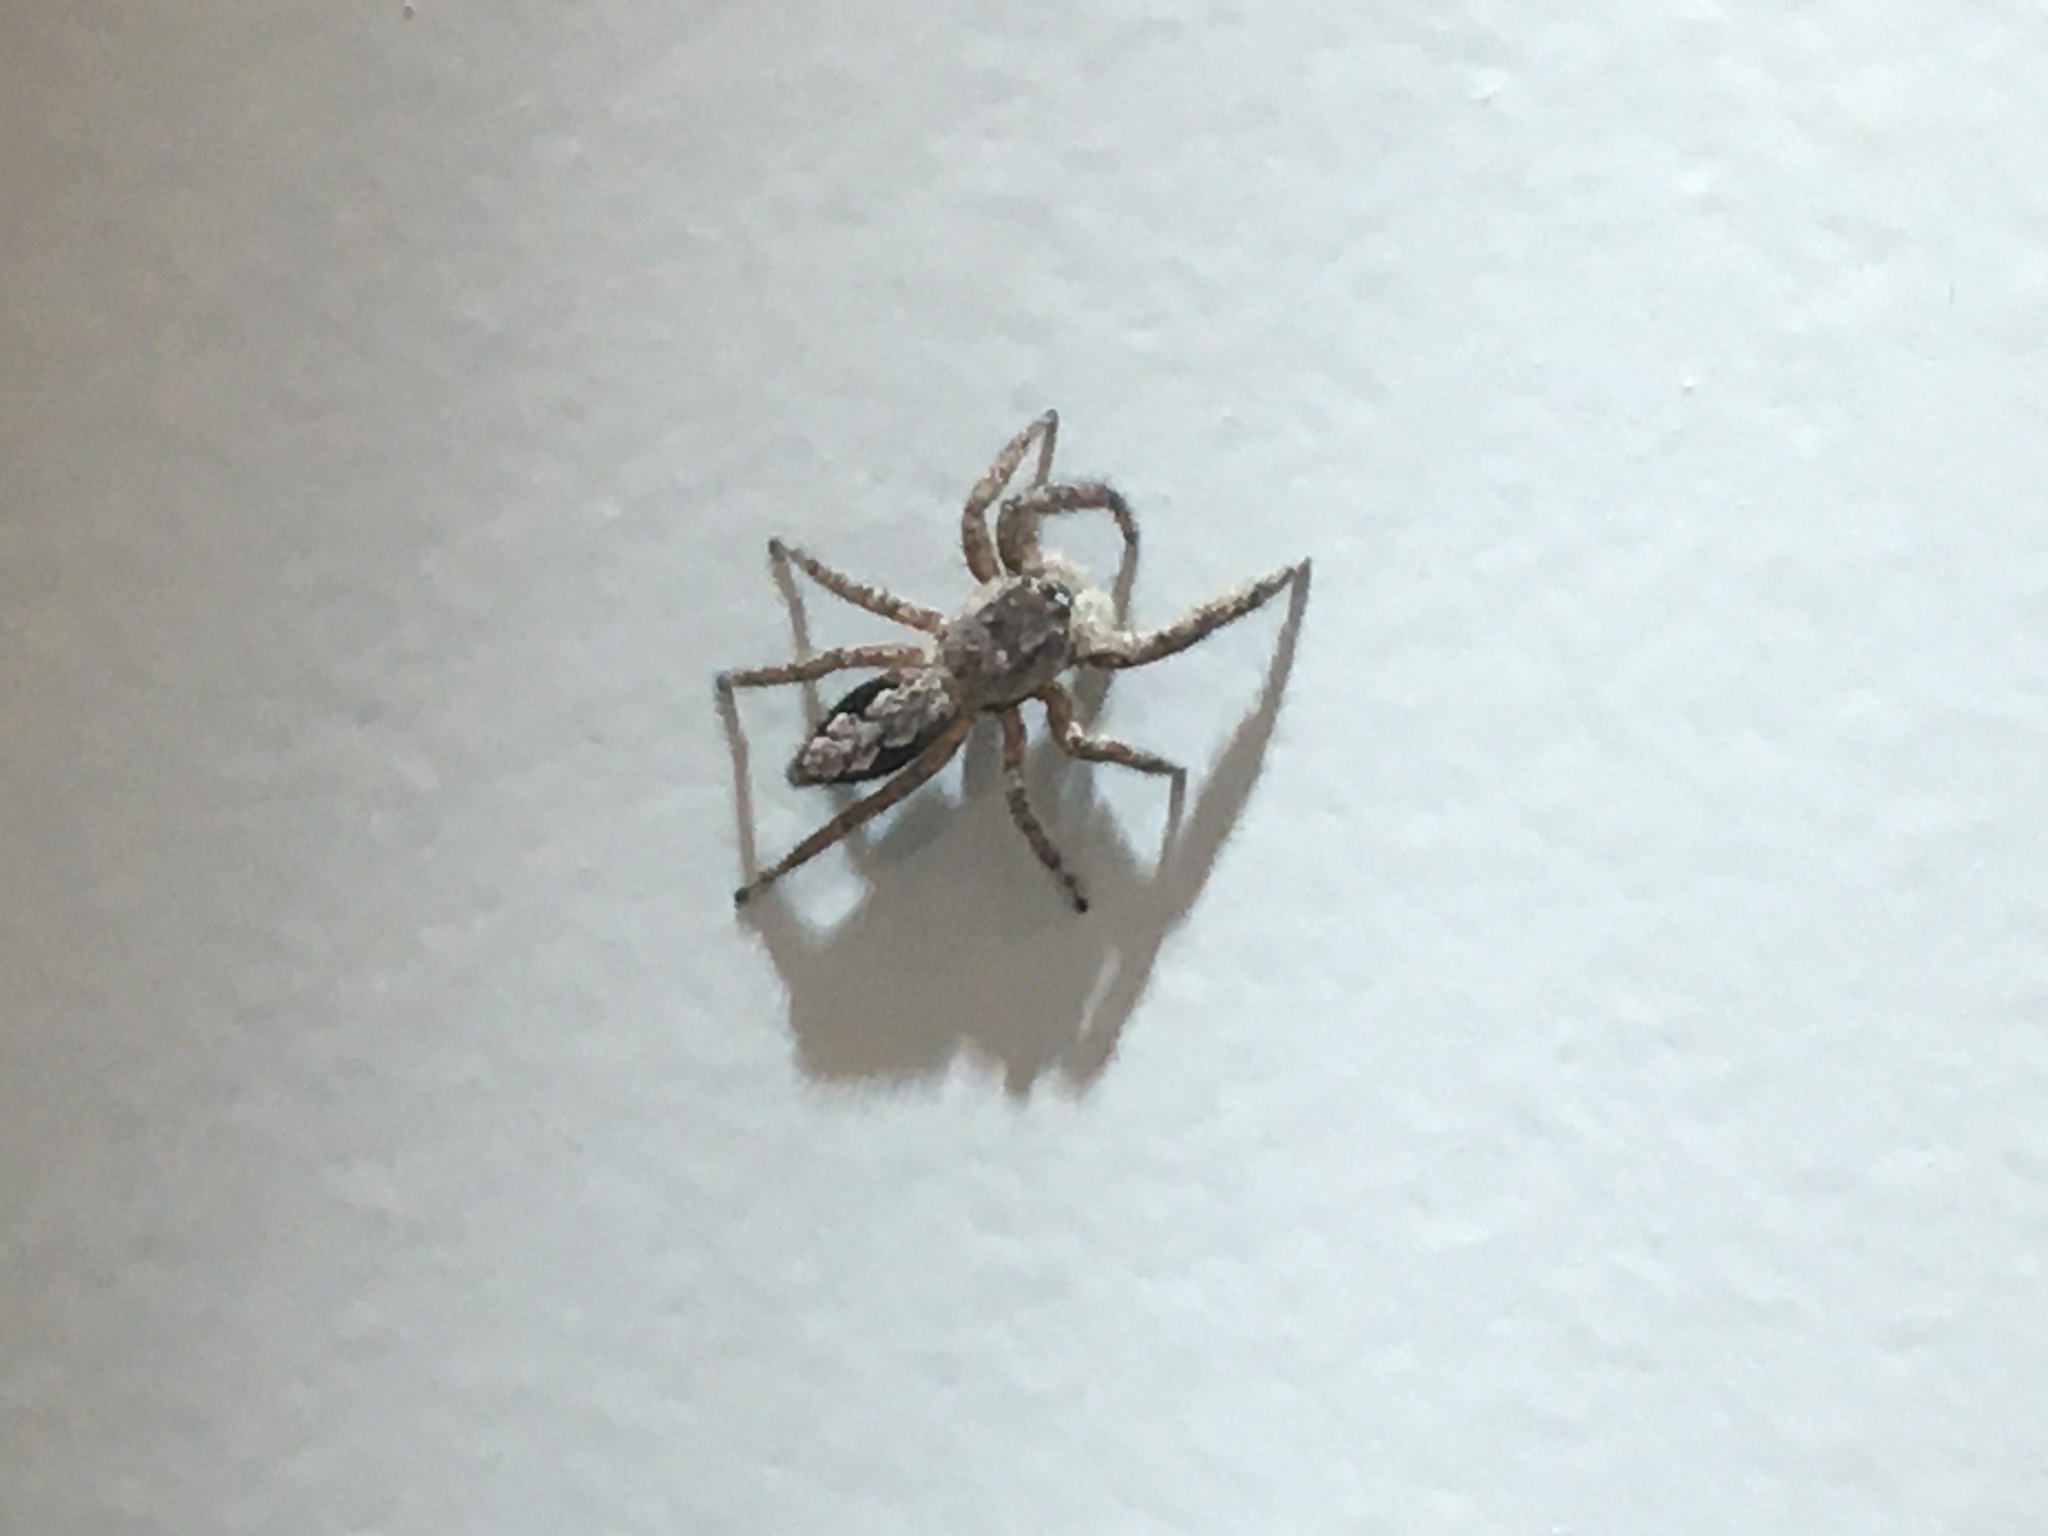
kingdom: Animalia
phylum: Arthropoda
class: Arachnida
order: Araneae
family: Salticidae
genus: Platycryptus
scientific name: Platycryptus undatus
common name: Tan jumping spider
